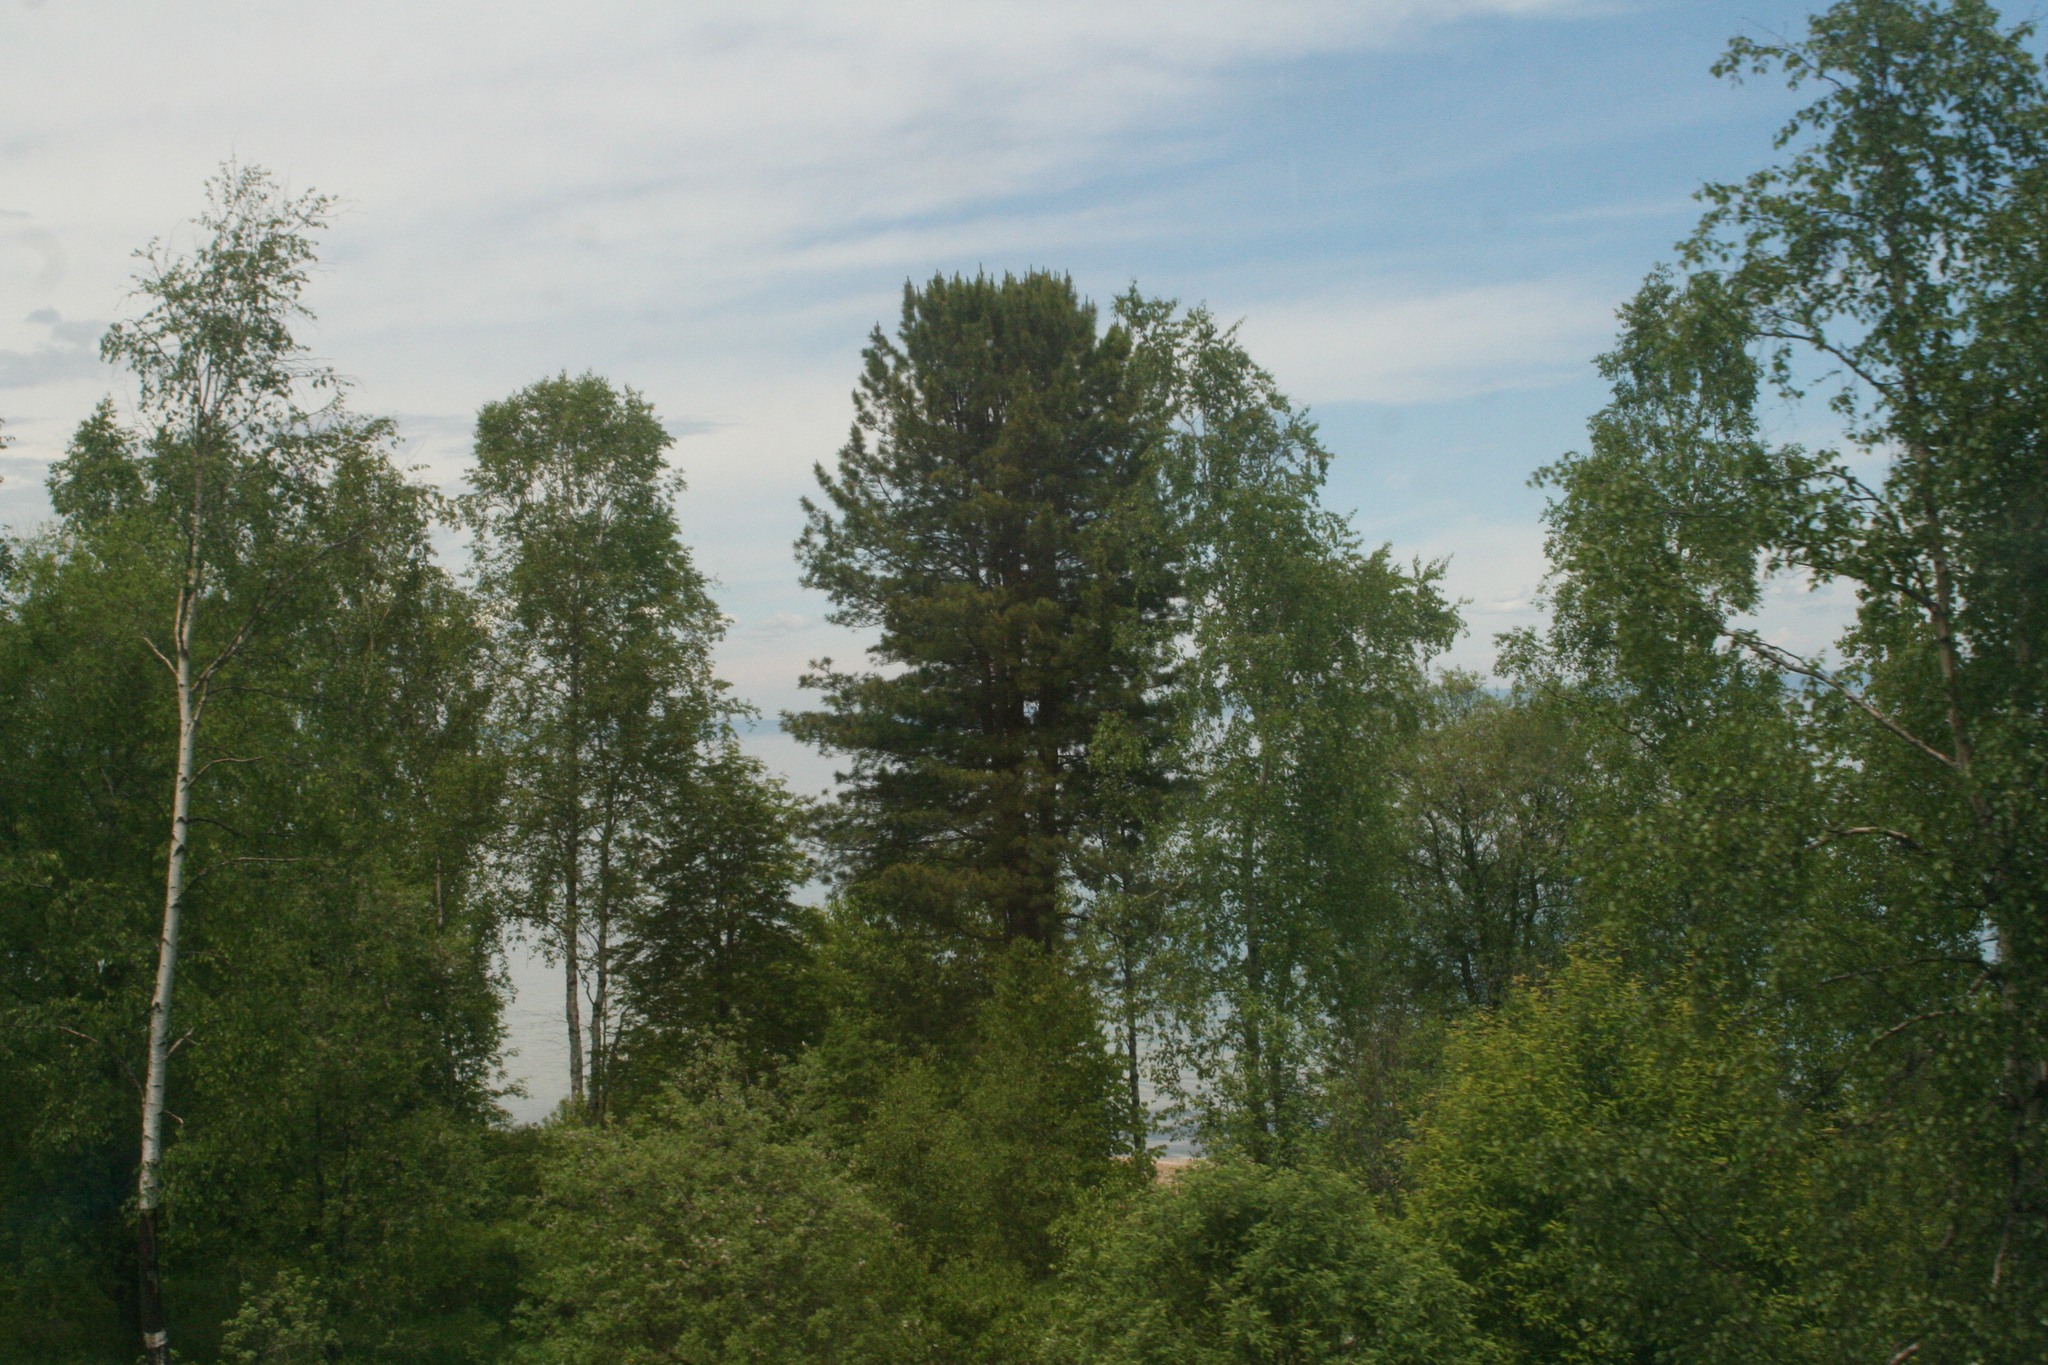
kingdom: Plantae
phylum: Tracheophyta
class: Magnoliopsida
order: Fagales
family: Betulaceae
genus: Betula
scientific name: Betula pendula
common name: Silver birch
